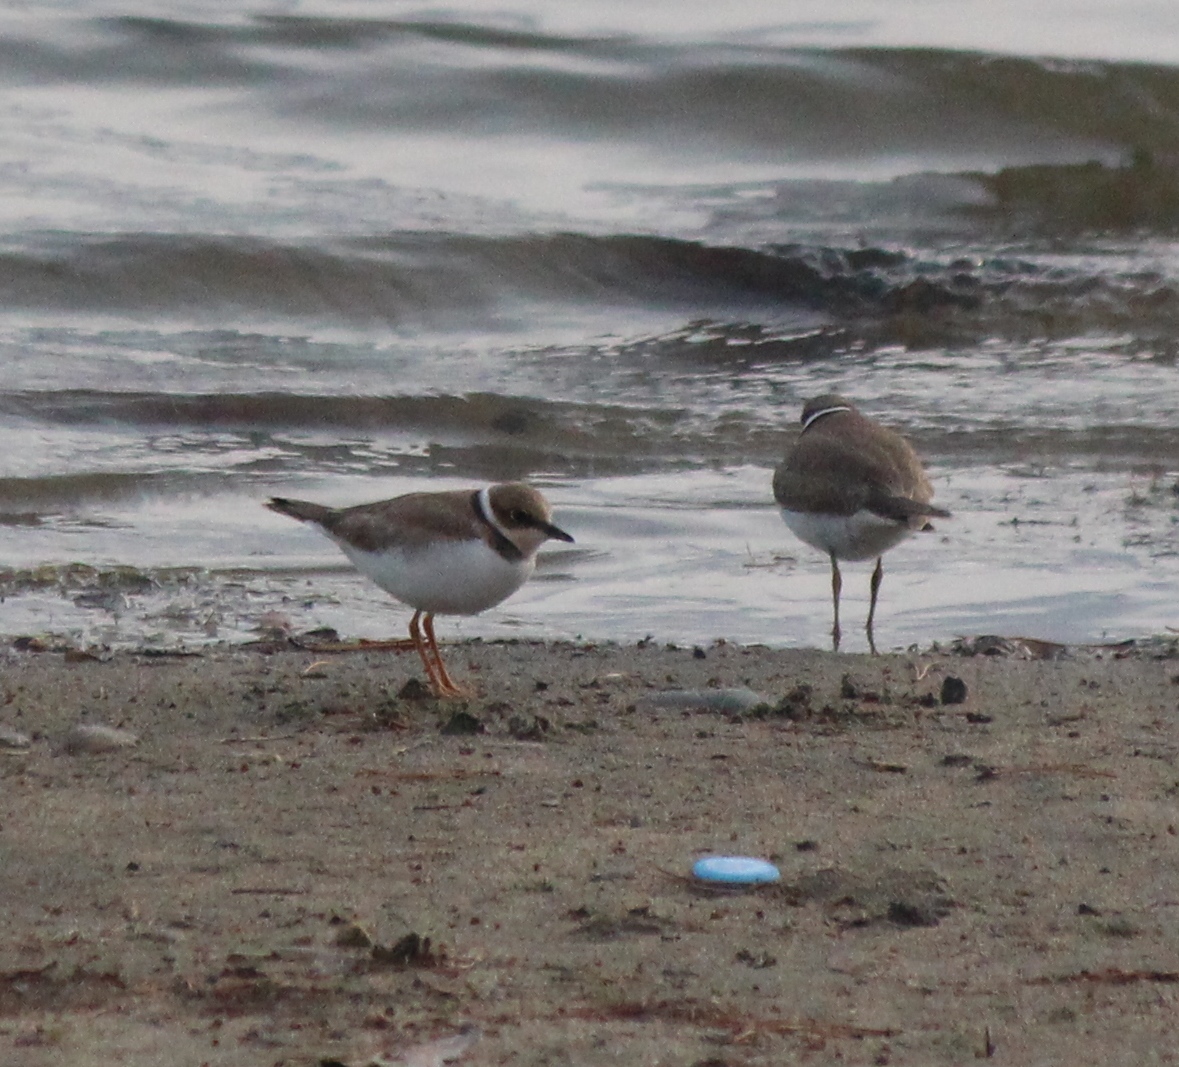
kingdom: Animalia
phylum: Chordata
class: Aves
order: Charadriiformes
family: Charadriidae
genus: Charadrius
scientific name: Charadrius hiaticula
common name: Common ringed plover
